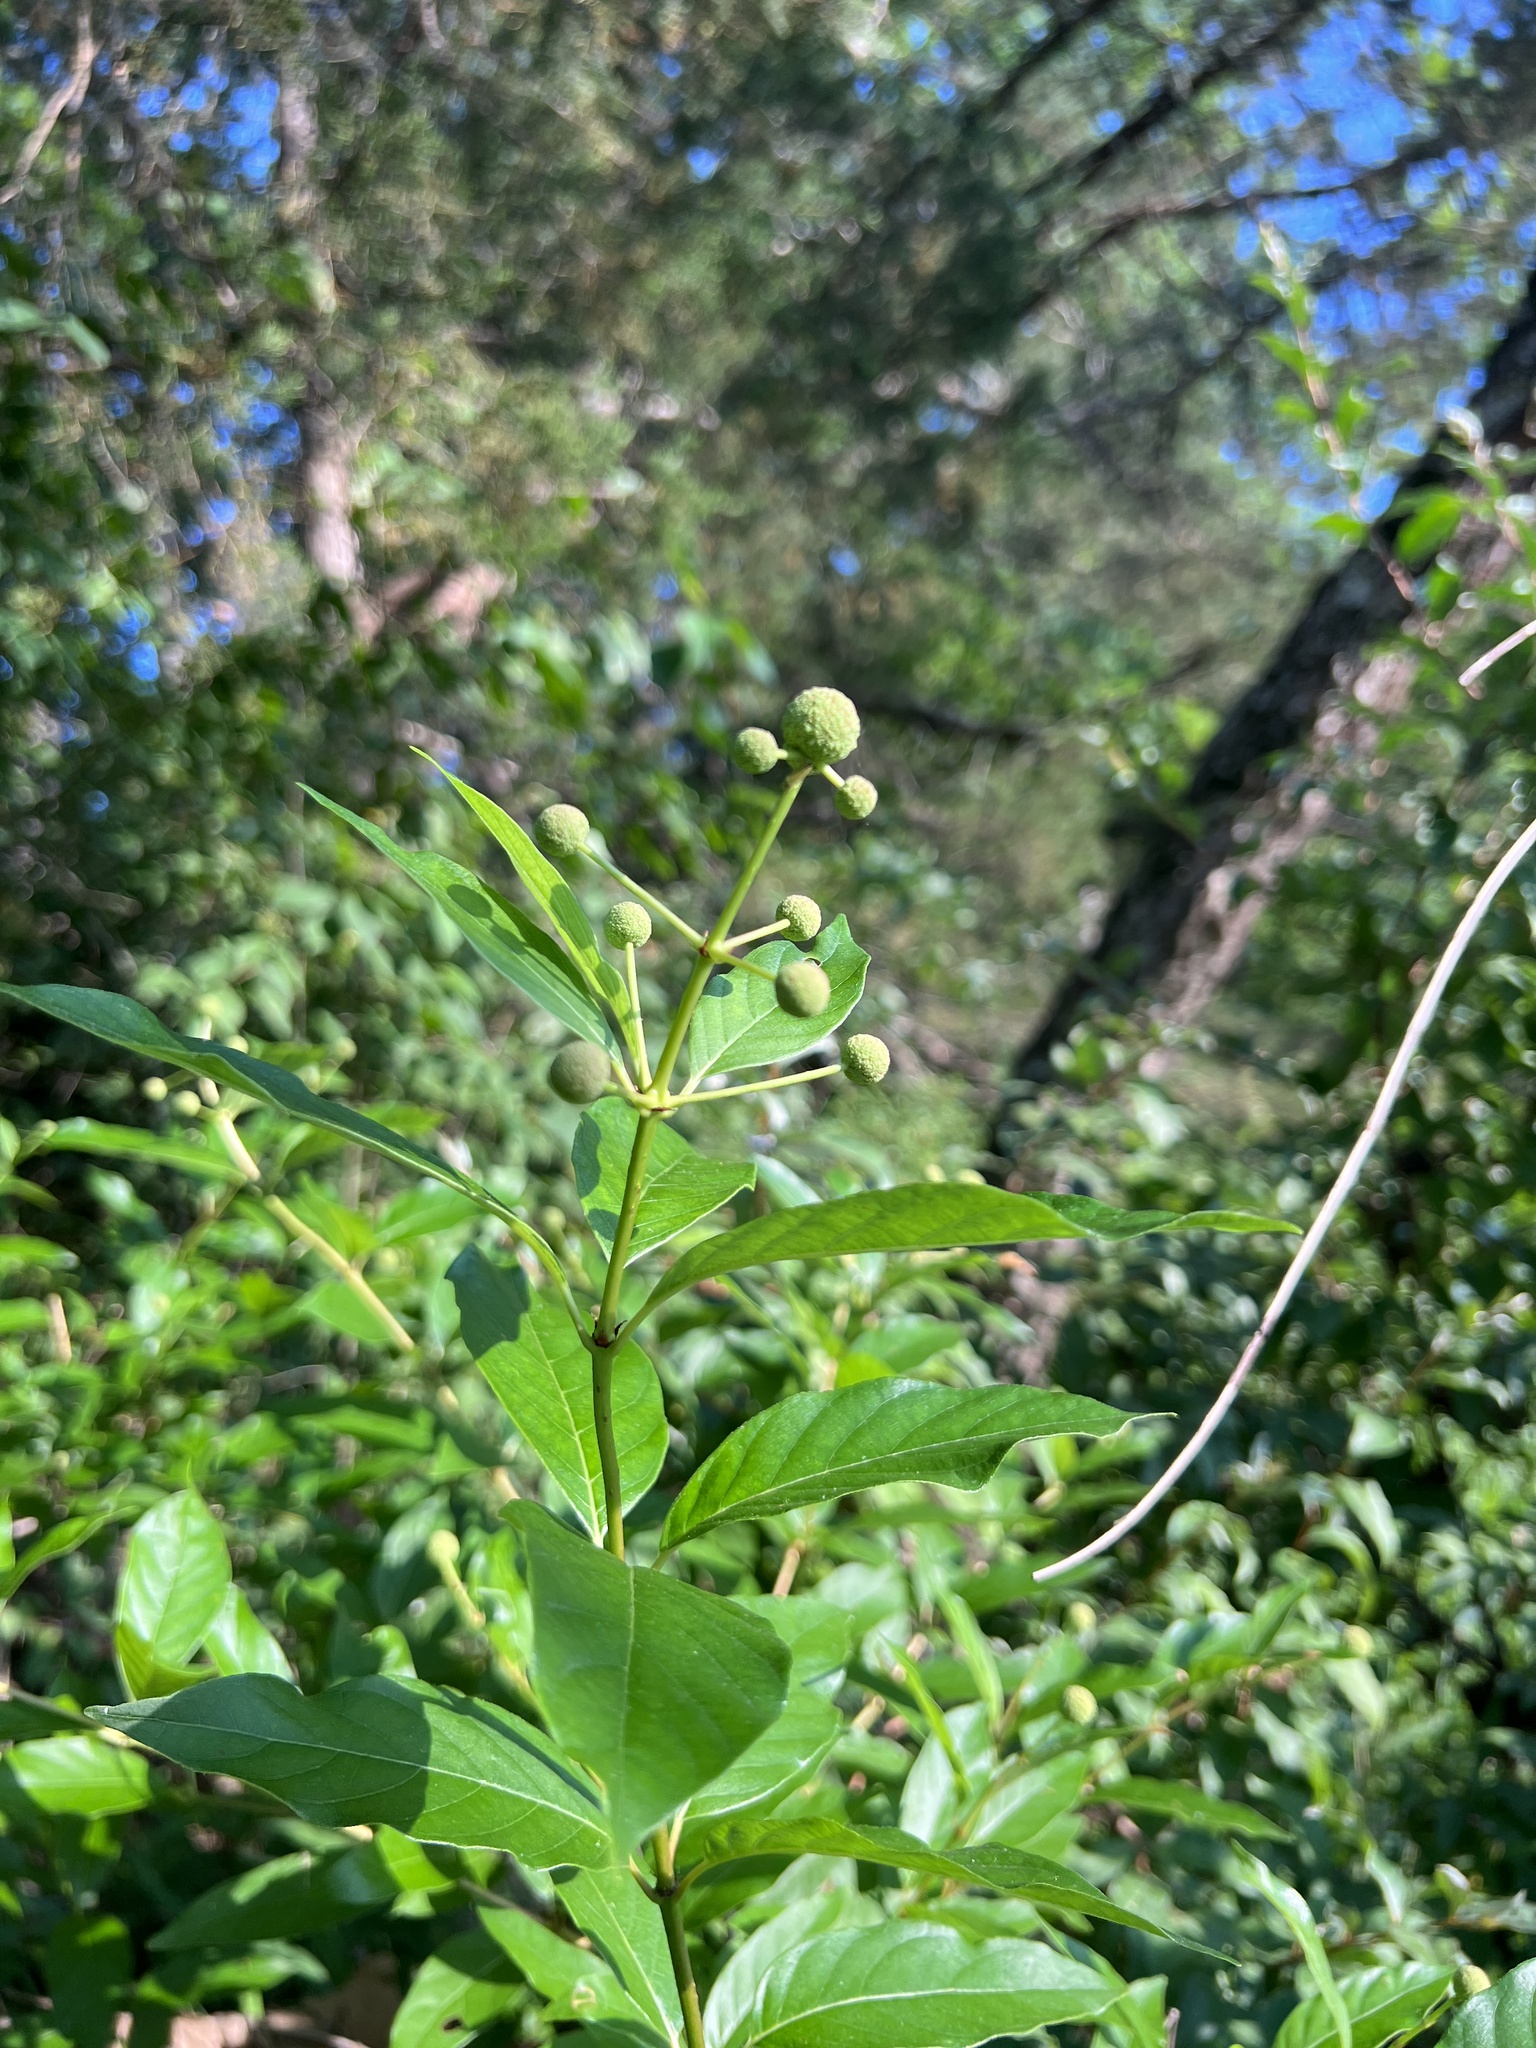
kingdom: Plantae
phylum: Tracheophyta
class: Magnoliopsida
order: Gentianales
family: Rubiaceae
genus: Cephalanthus
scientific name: Cephalanthus occidentalis
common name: Button-willow
